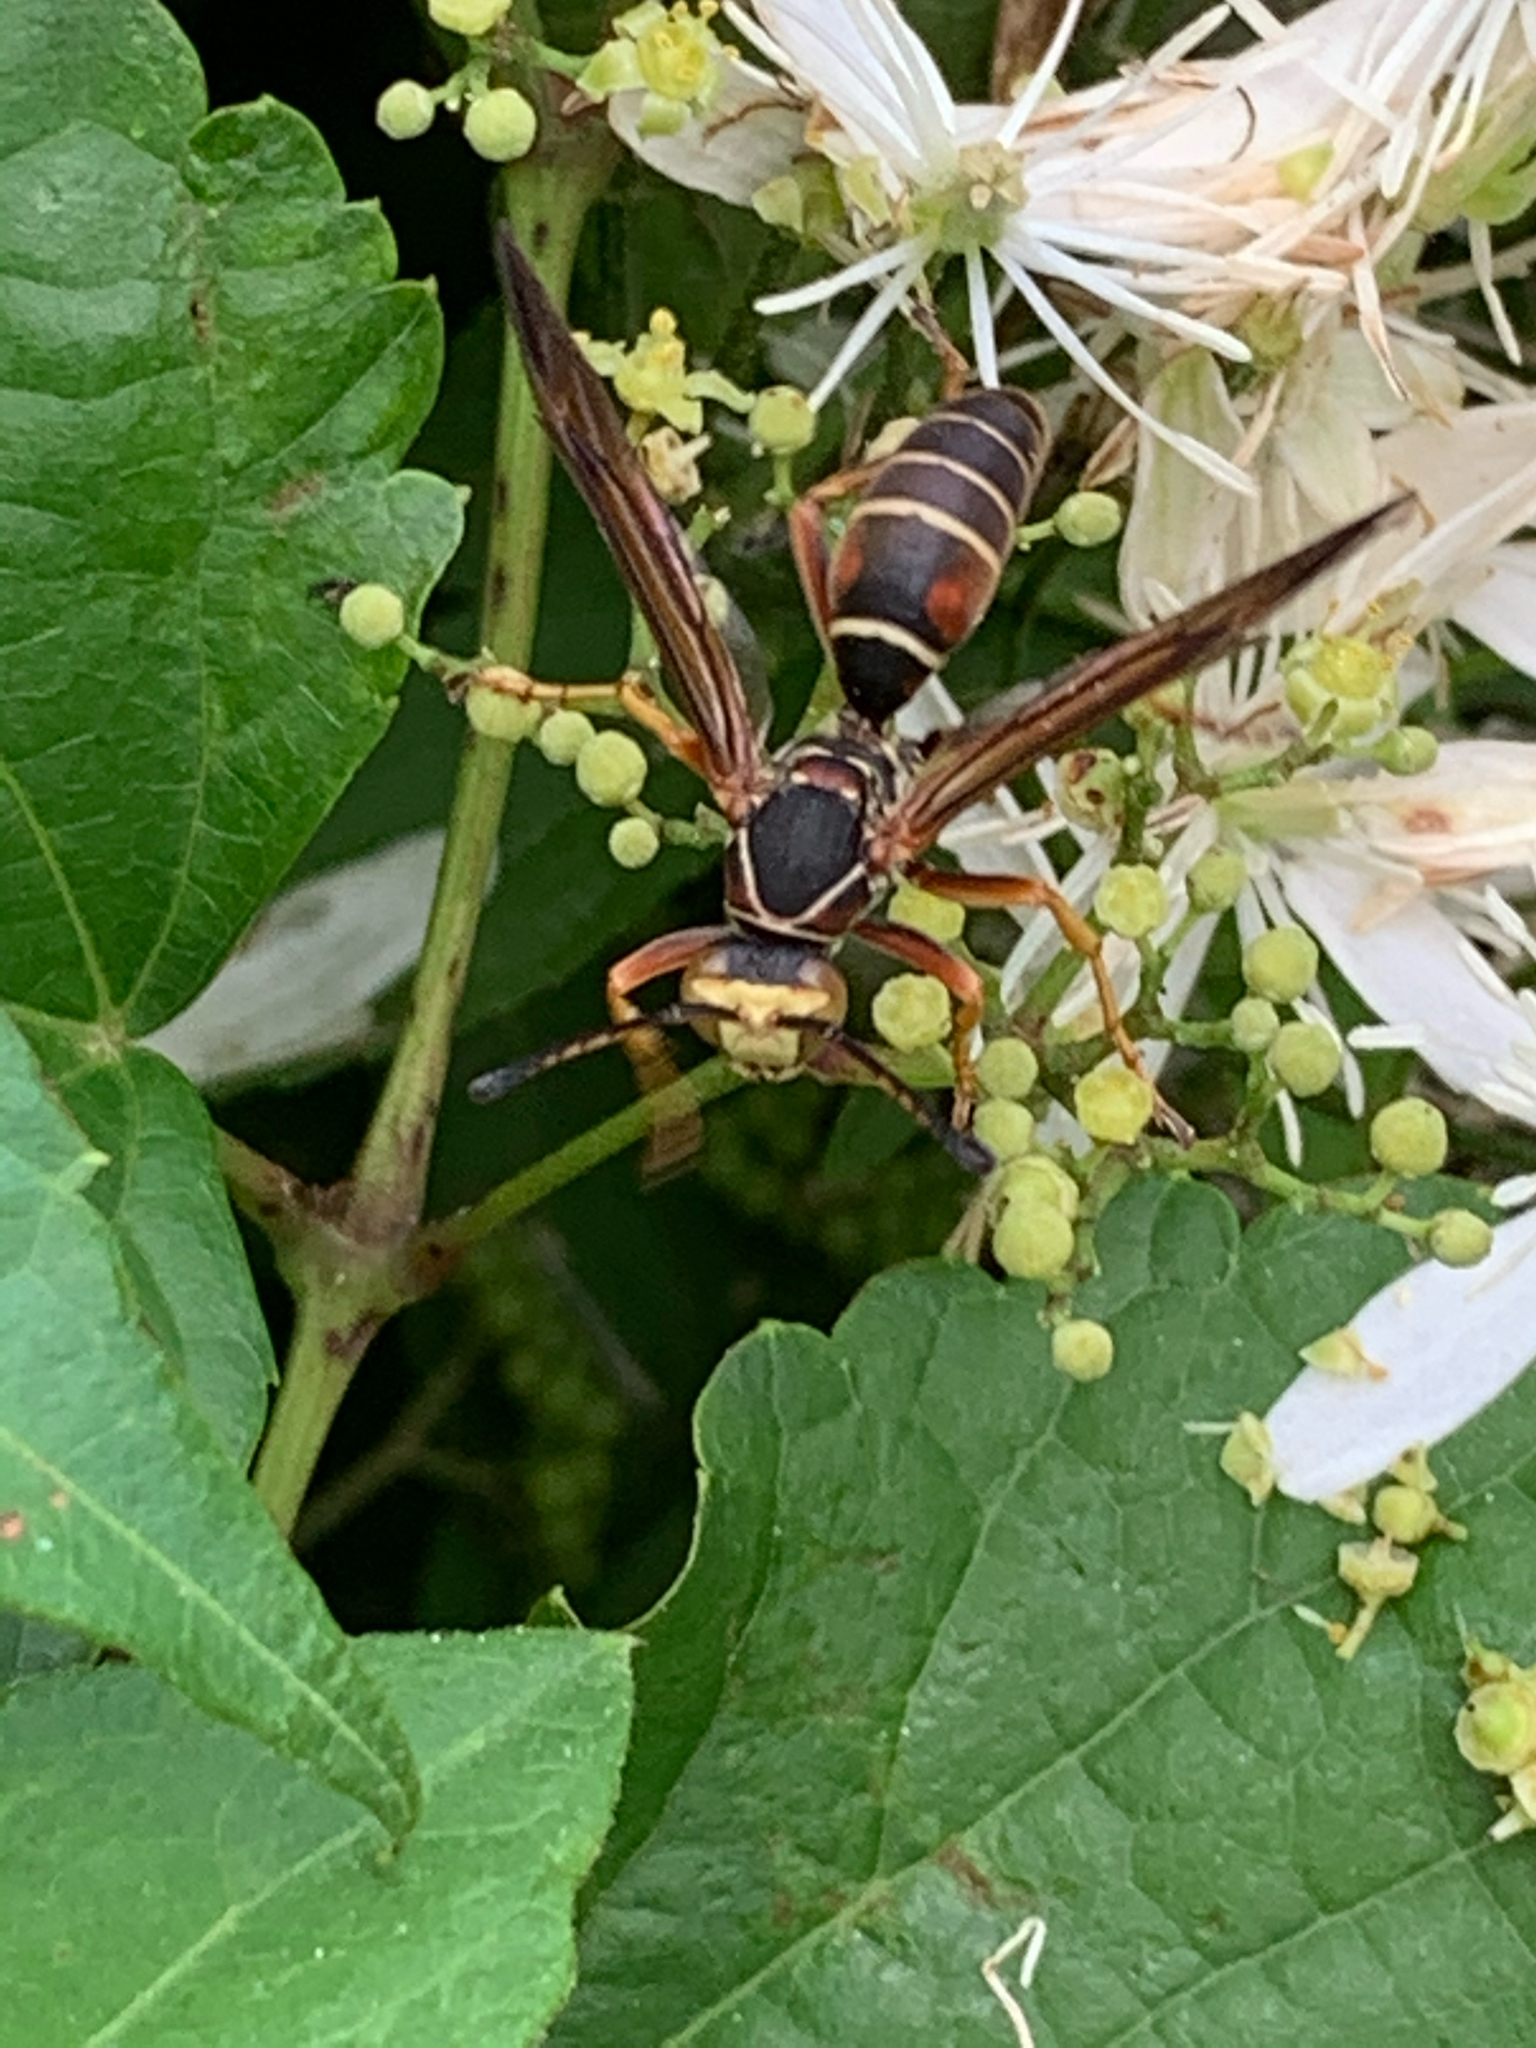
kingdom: Animalia
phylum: Arthropoda
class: Insecta
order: Hymenoptera
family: Eumenidae
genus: Polistes
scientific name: Polistes fuscatus
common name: Dark paper wasp
